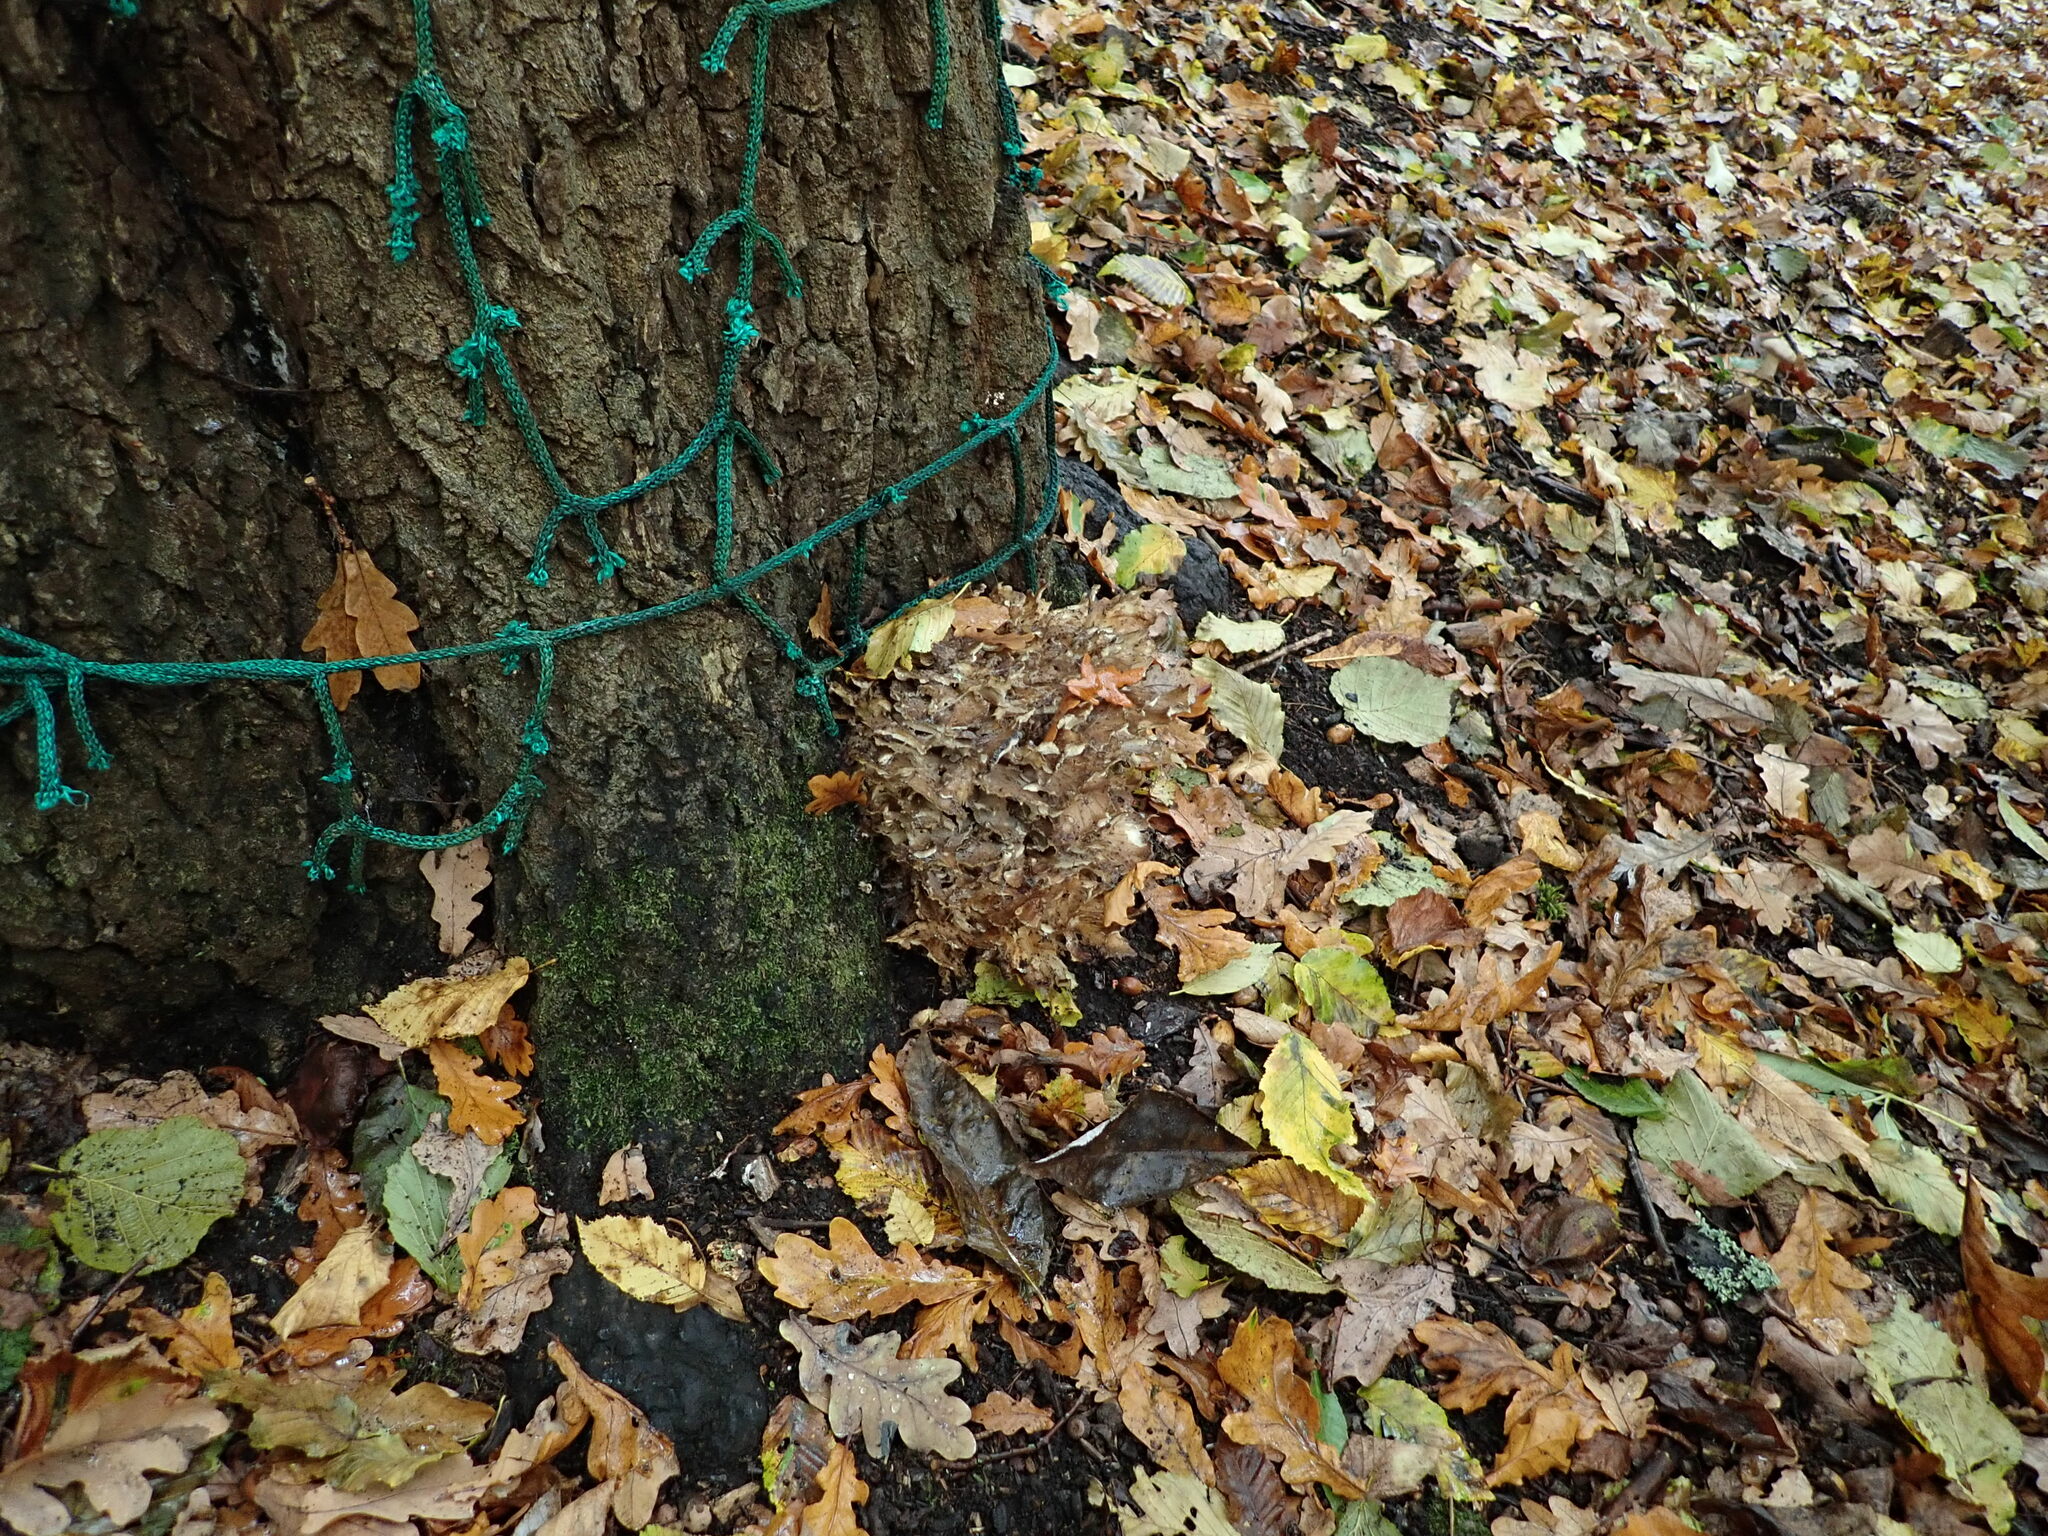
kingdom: Fungi
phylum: Basidiomycota
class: Agaricomycetes
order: Polyporales
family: Grifolaceae
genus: Grifola
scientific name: Grifola frondosa
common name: Hen of the woods
